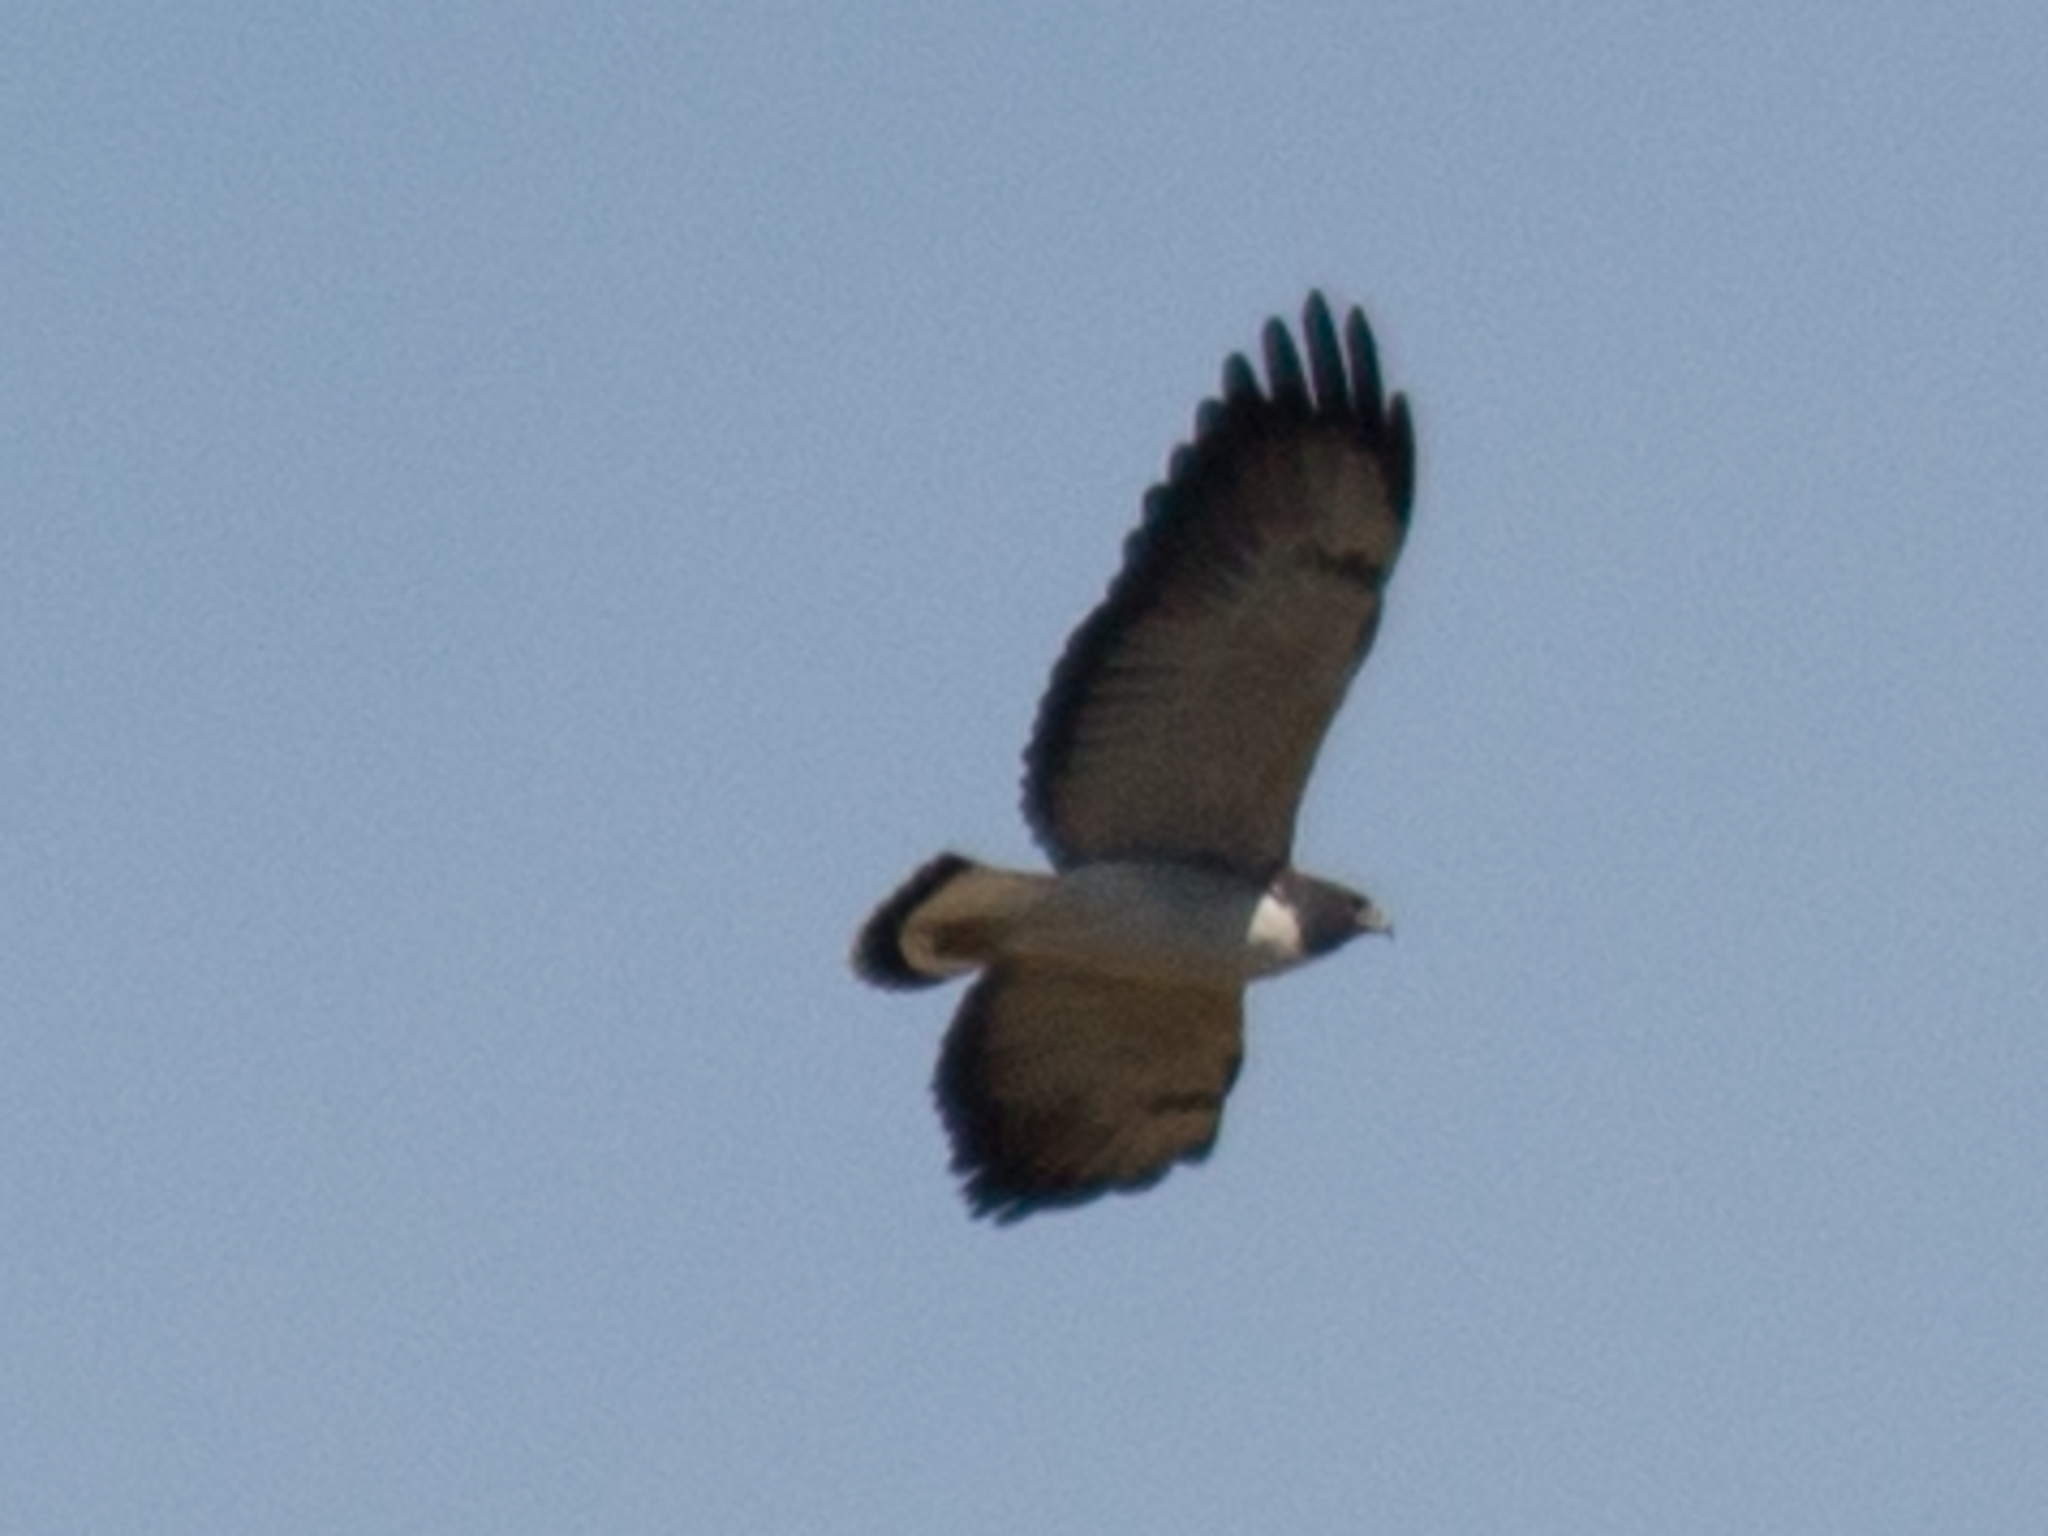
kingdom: Animalia
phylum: Chordata
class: Aves
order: Accipitriformes
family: Accipitridae
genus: Buteo
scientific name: Buteo albicaudatus
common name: White-tailed hawk
